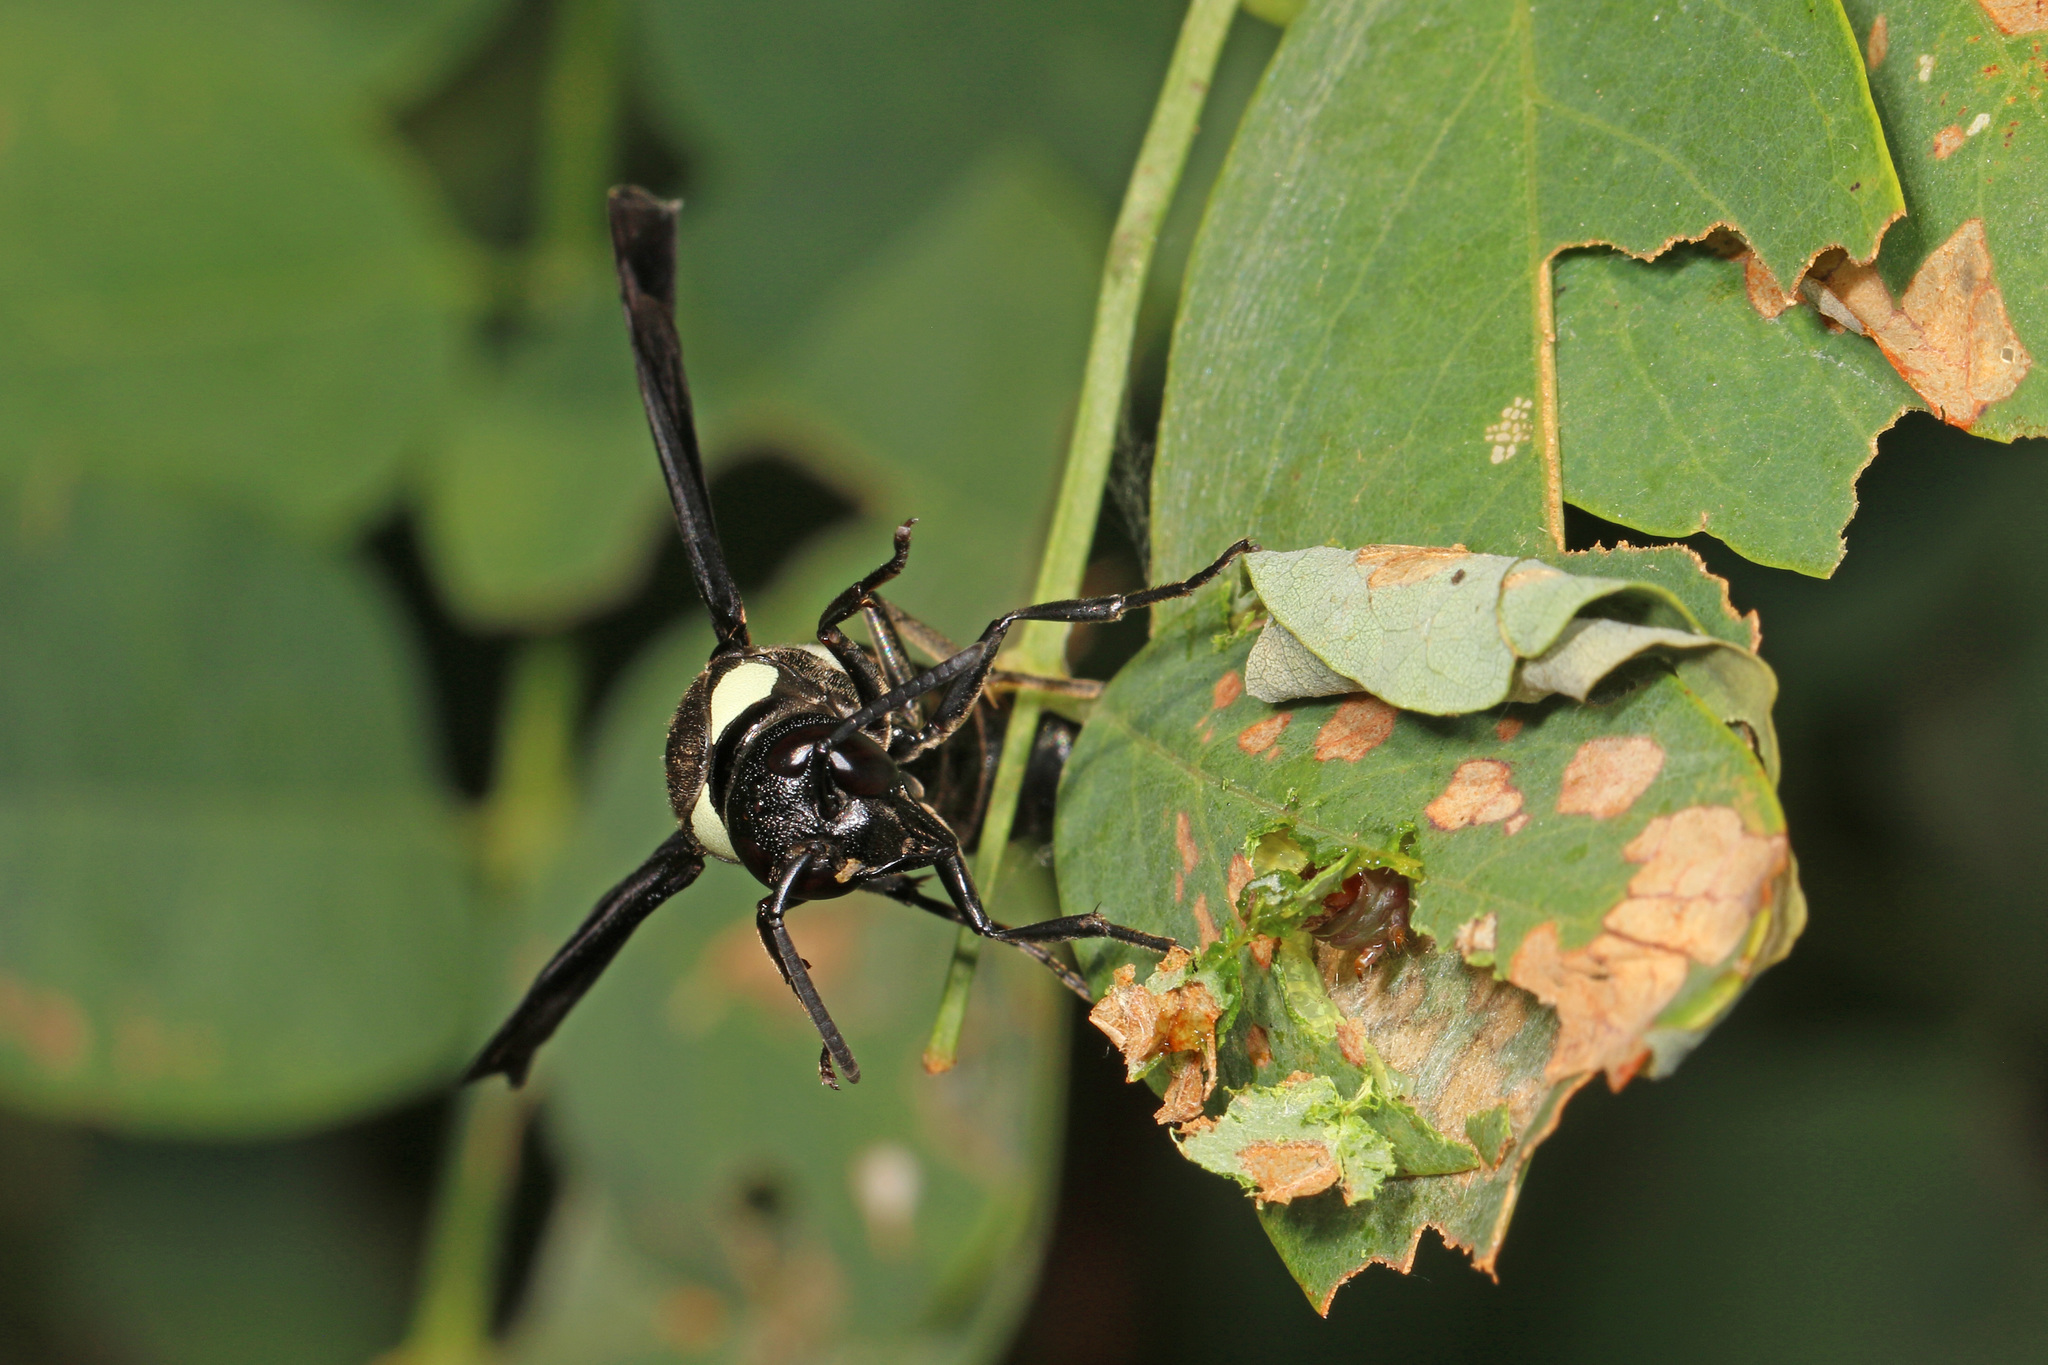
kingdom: Animalia
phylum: Arthropoda
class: Insecta
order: Hymenoptera
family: Eumenidae
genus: Monobia
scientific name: Monobia quadridens
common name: Four-toothed mason wasp
